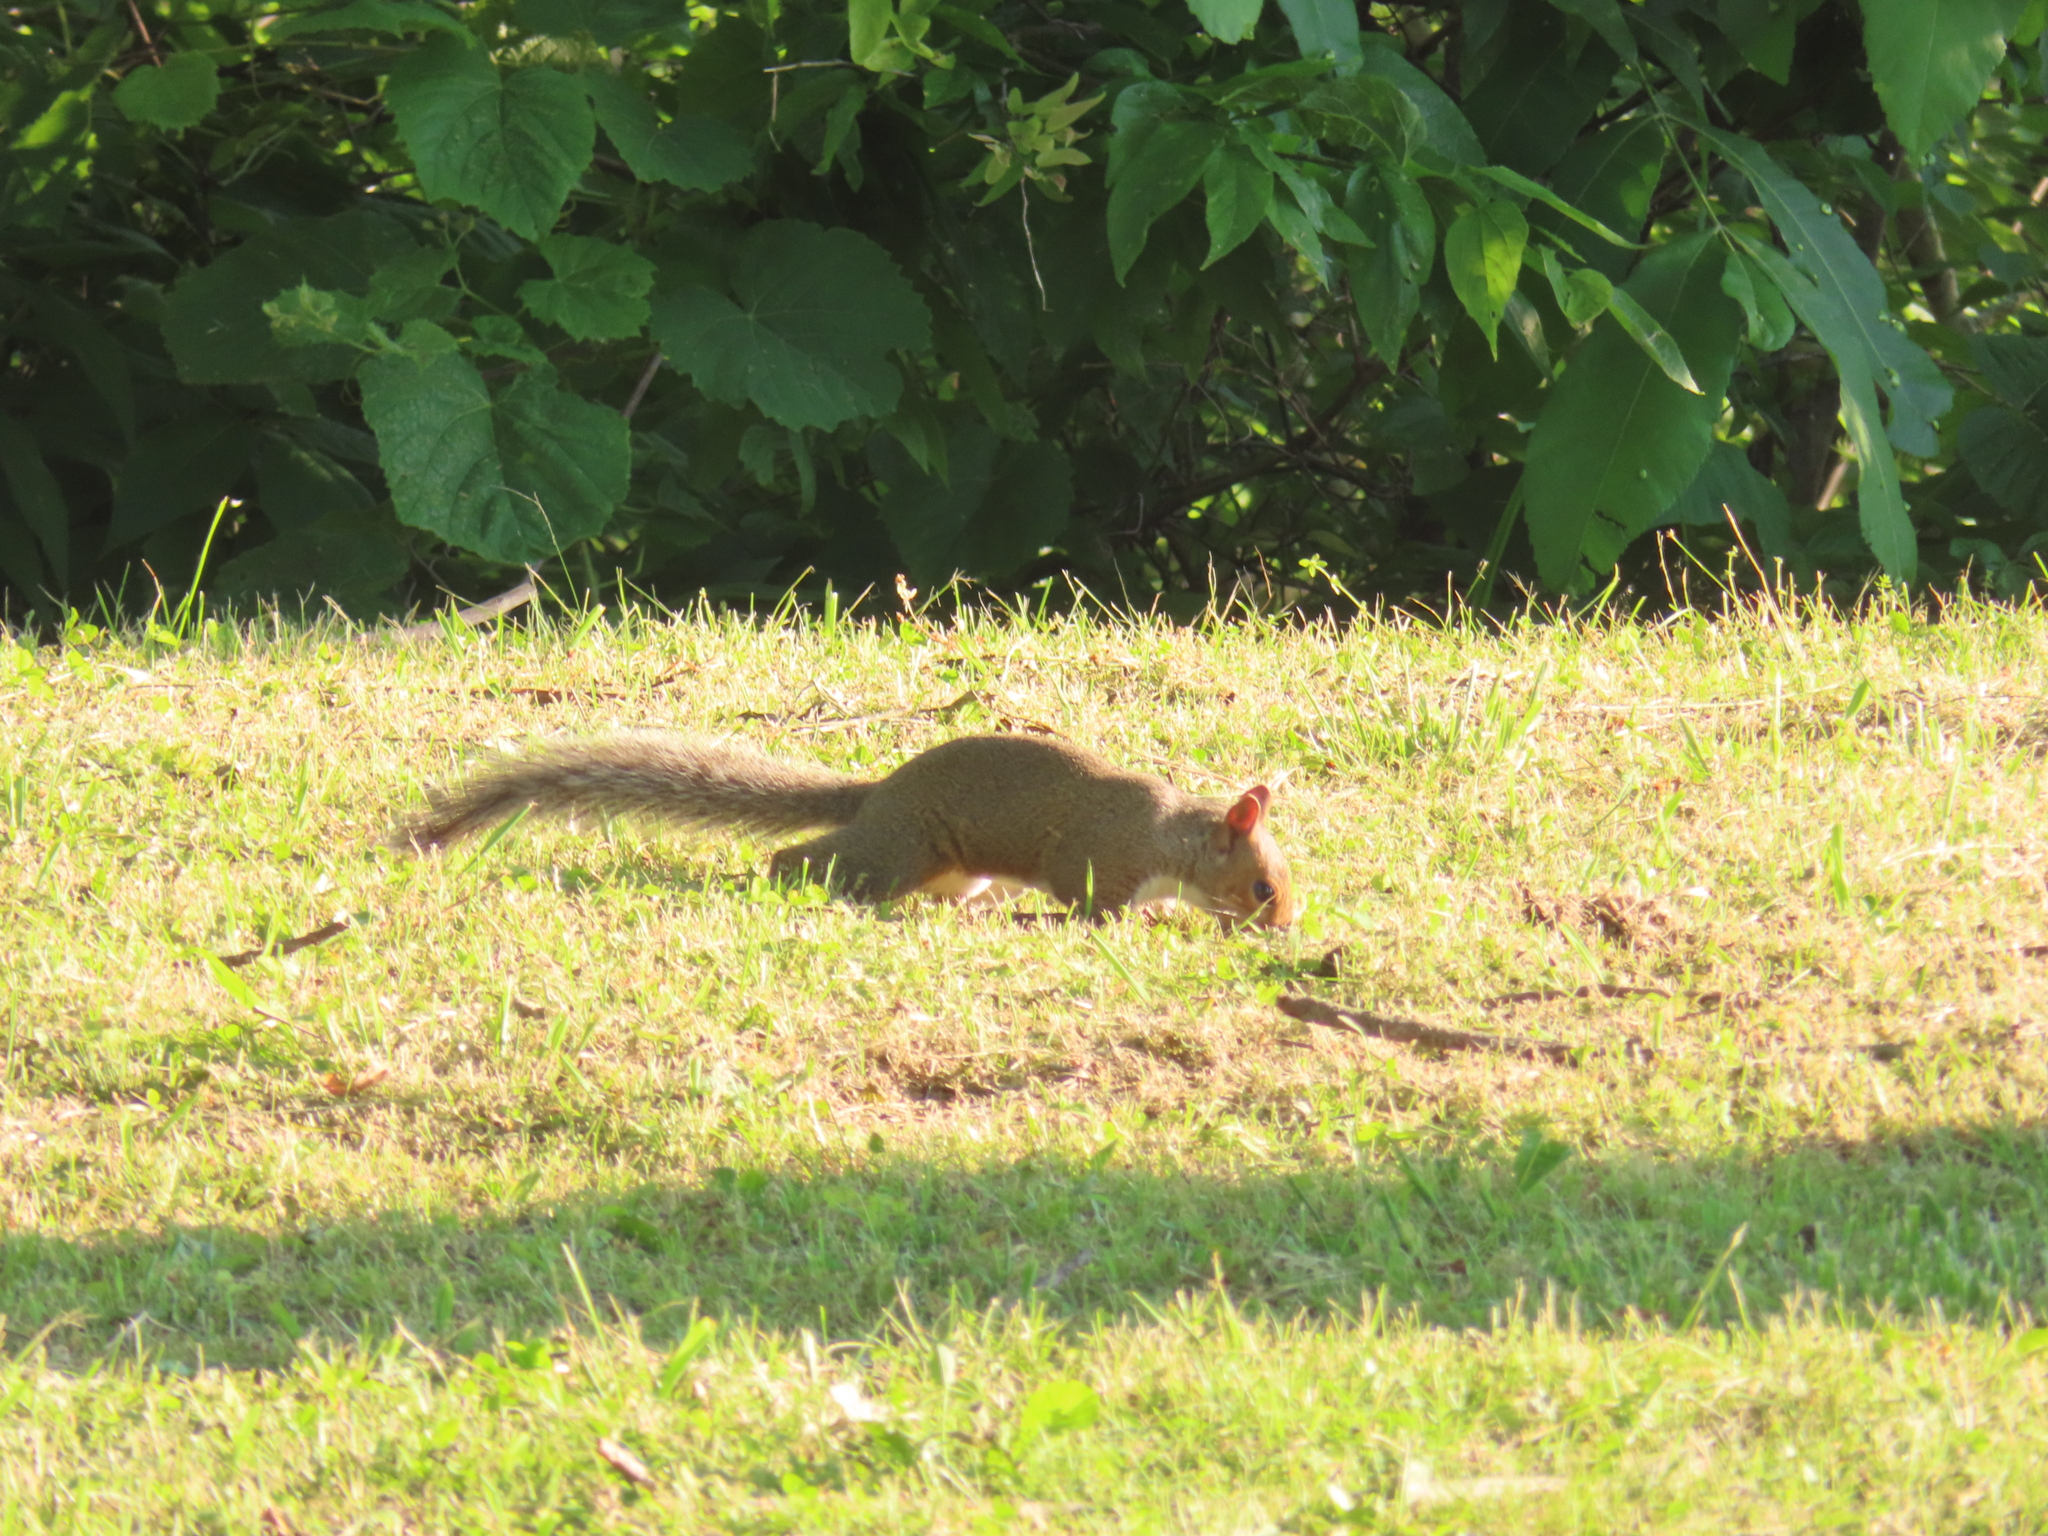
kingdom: Animalia
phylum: Chordata
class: Mammalia
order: Rodentia
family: Sciuridae
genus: Sciurus
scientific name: Sciurus carolinensis
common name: Eastern gray squirrel
